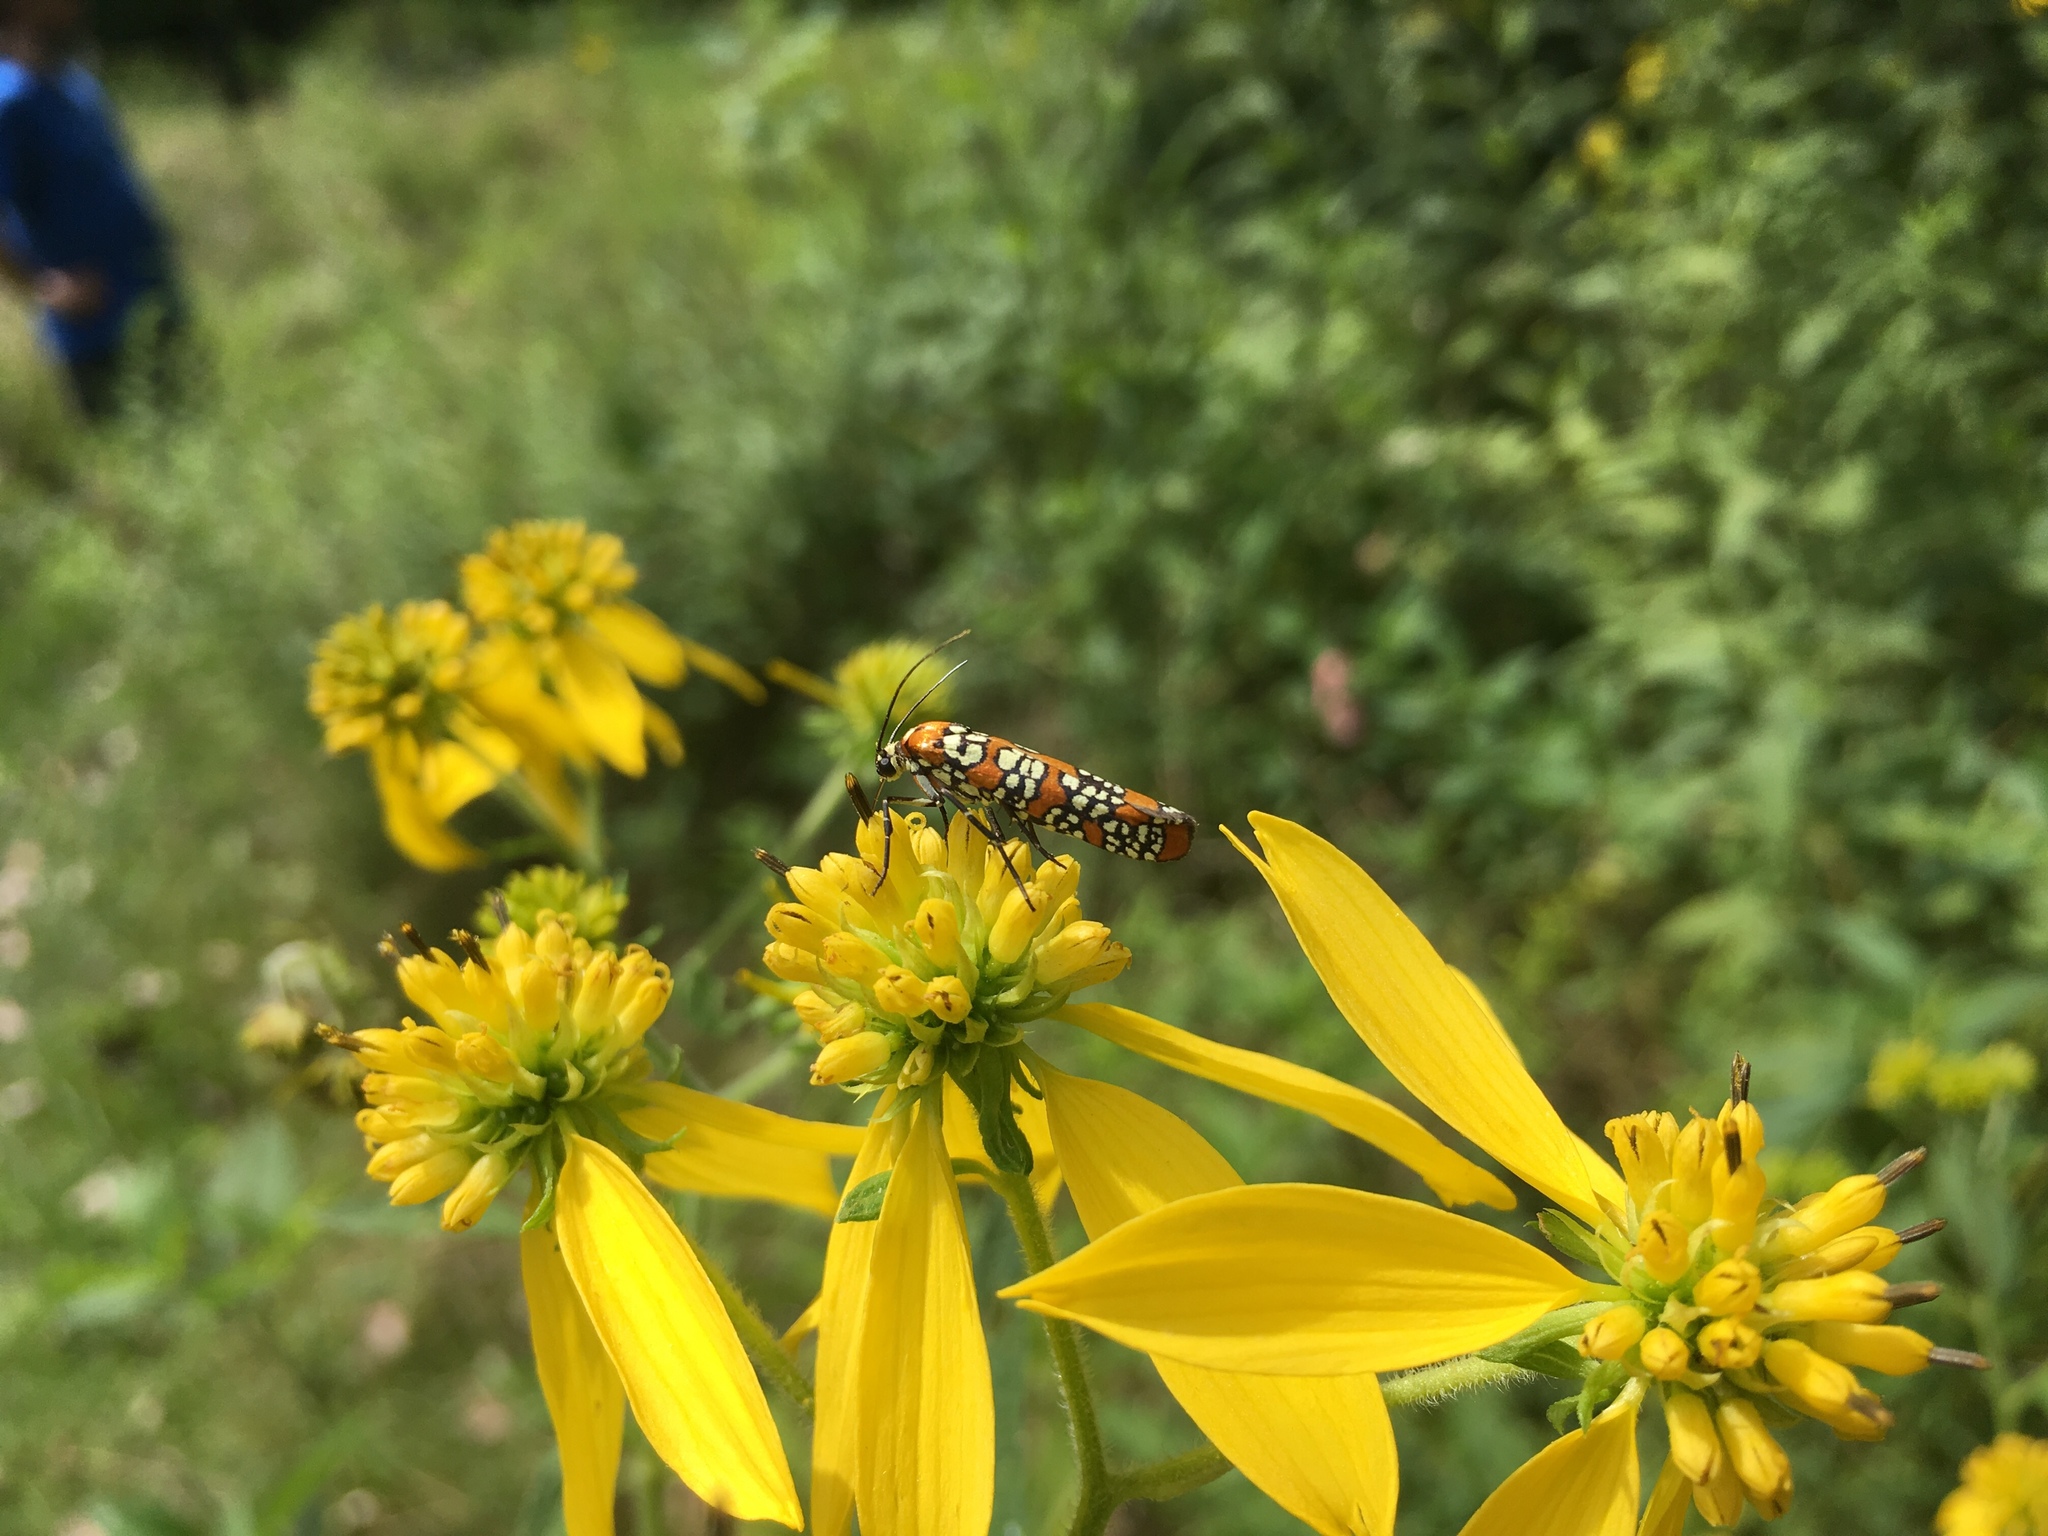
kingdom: Animalia
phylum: Arthropoda
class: Insecta
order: Lepidoptera
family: Attevidae
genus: Atteva
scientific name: Atteva punctella
